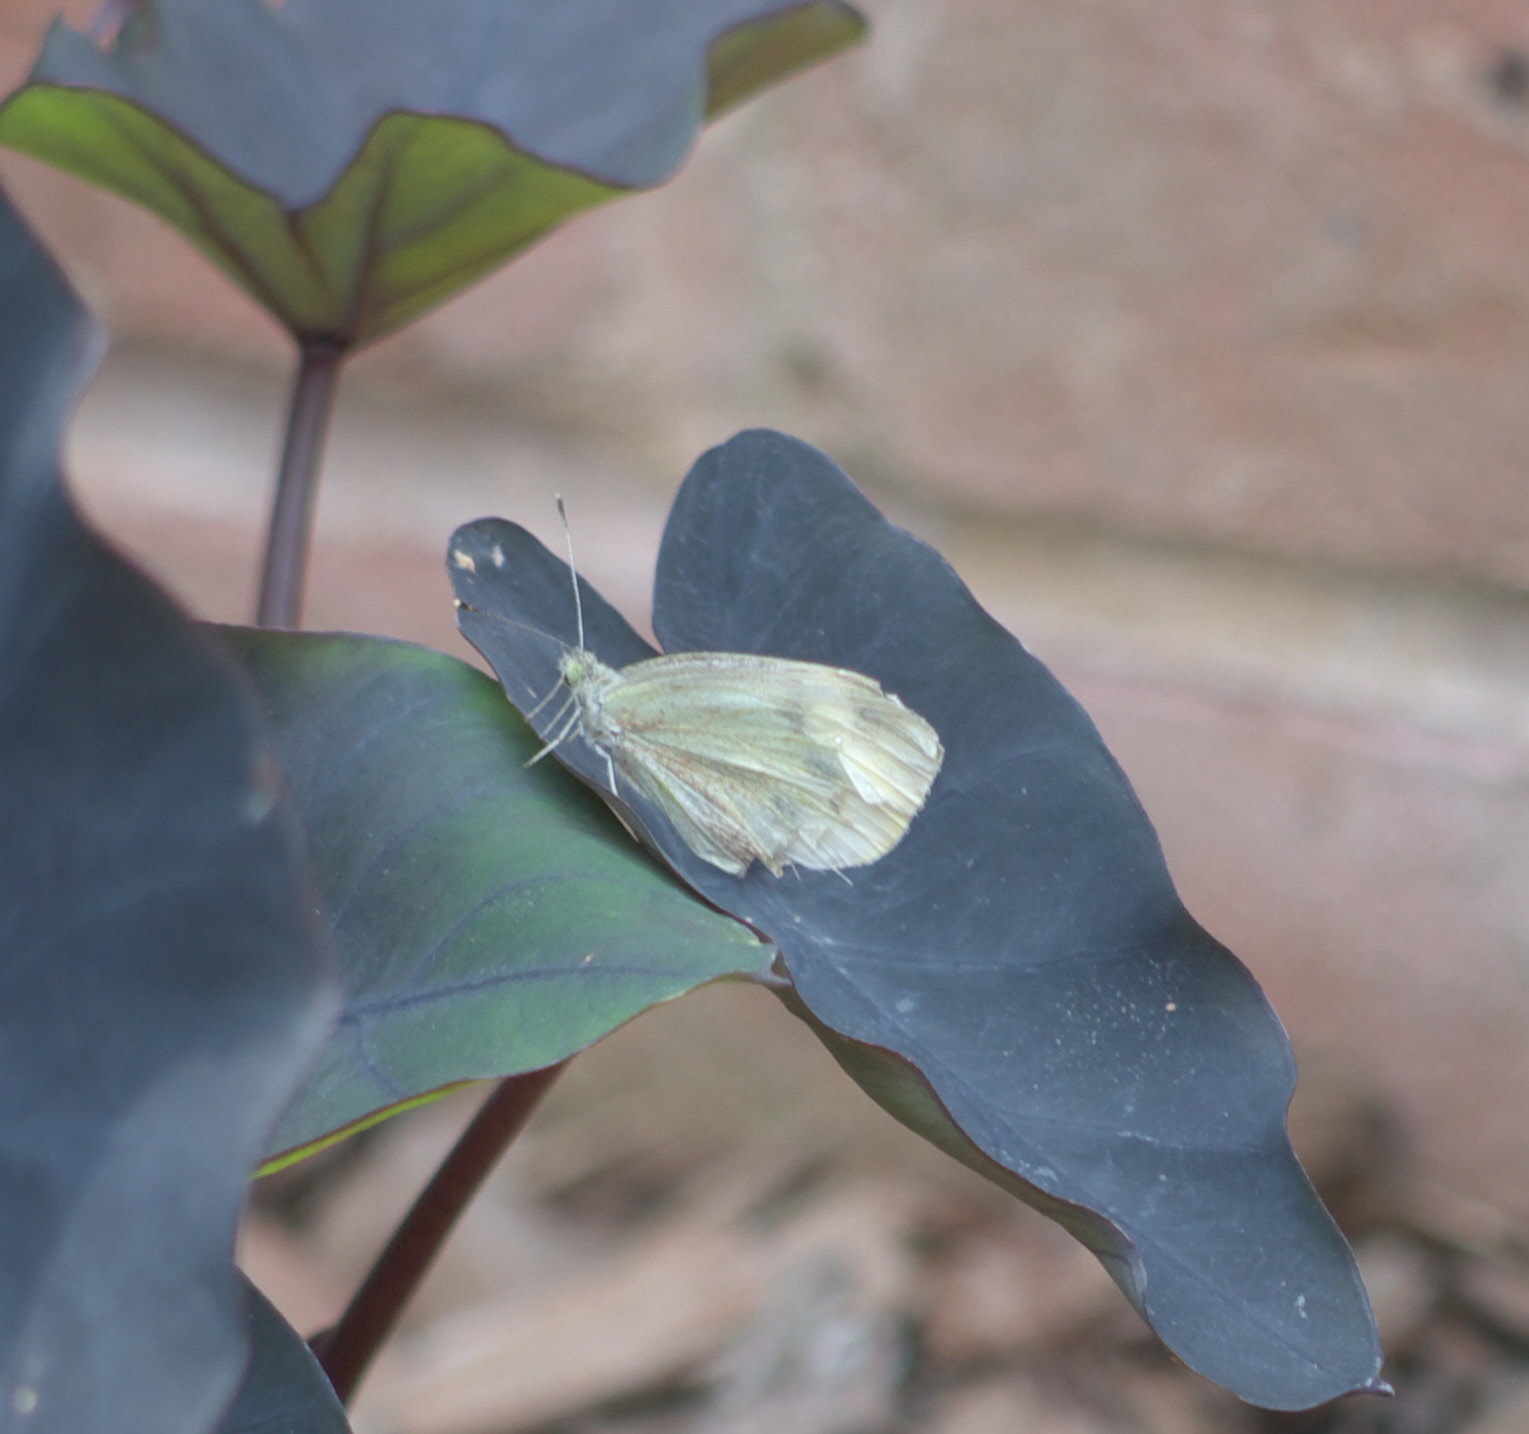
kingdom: Animalia
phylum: Arthropoda
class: Insecta
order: Lepidoptera
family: Pieridae
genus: Pieris
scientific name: Pieris rapae
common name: Small white
